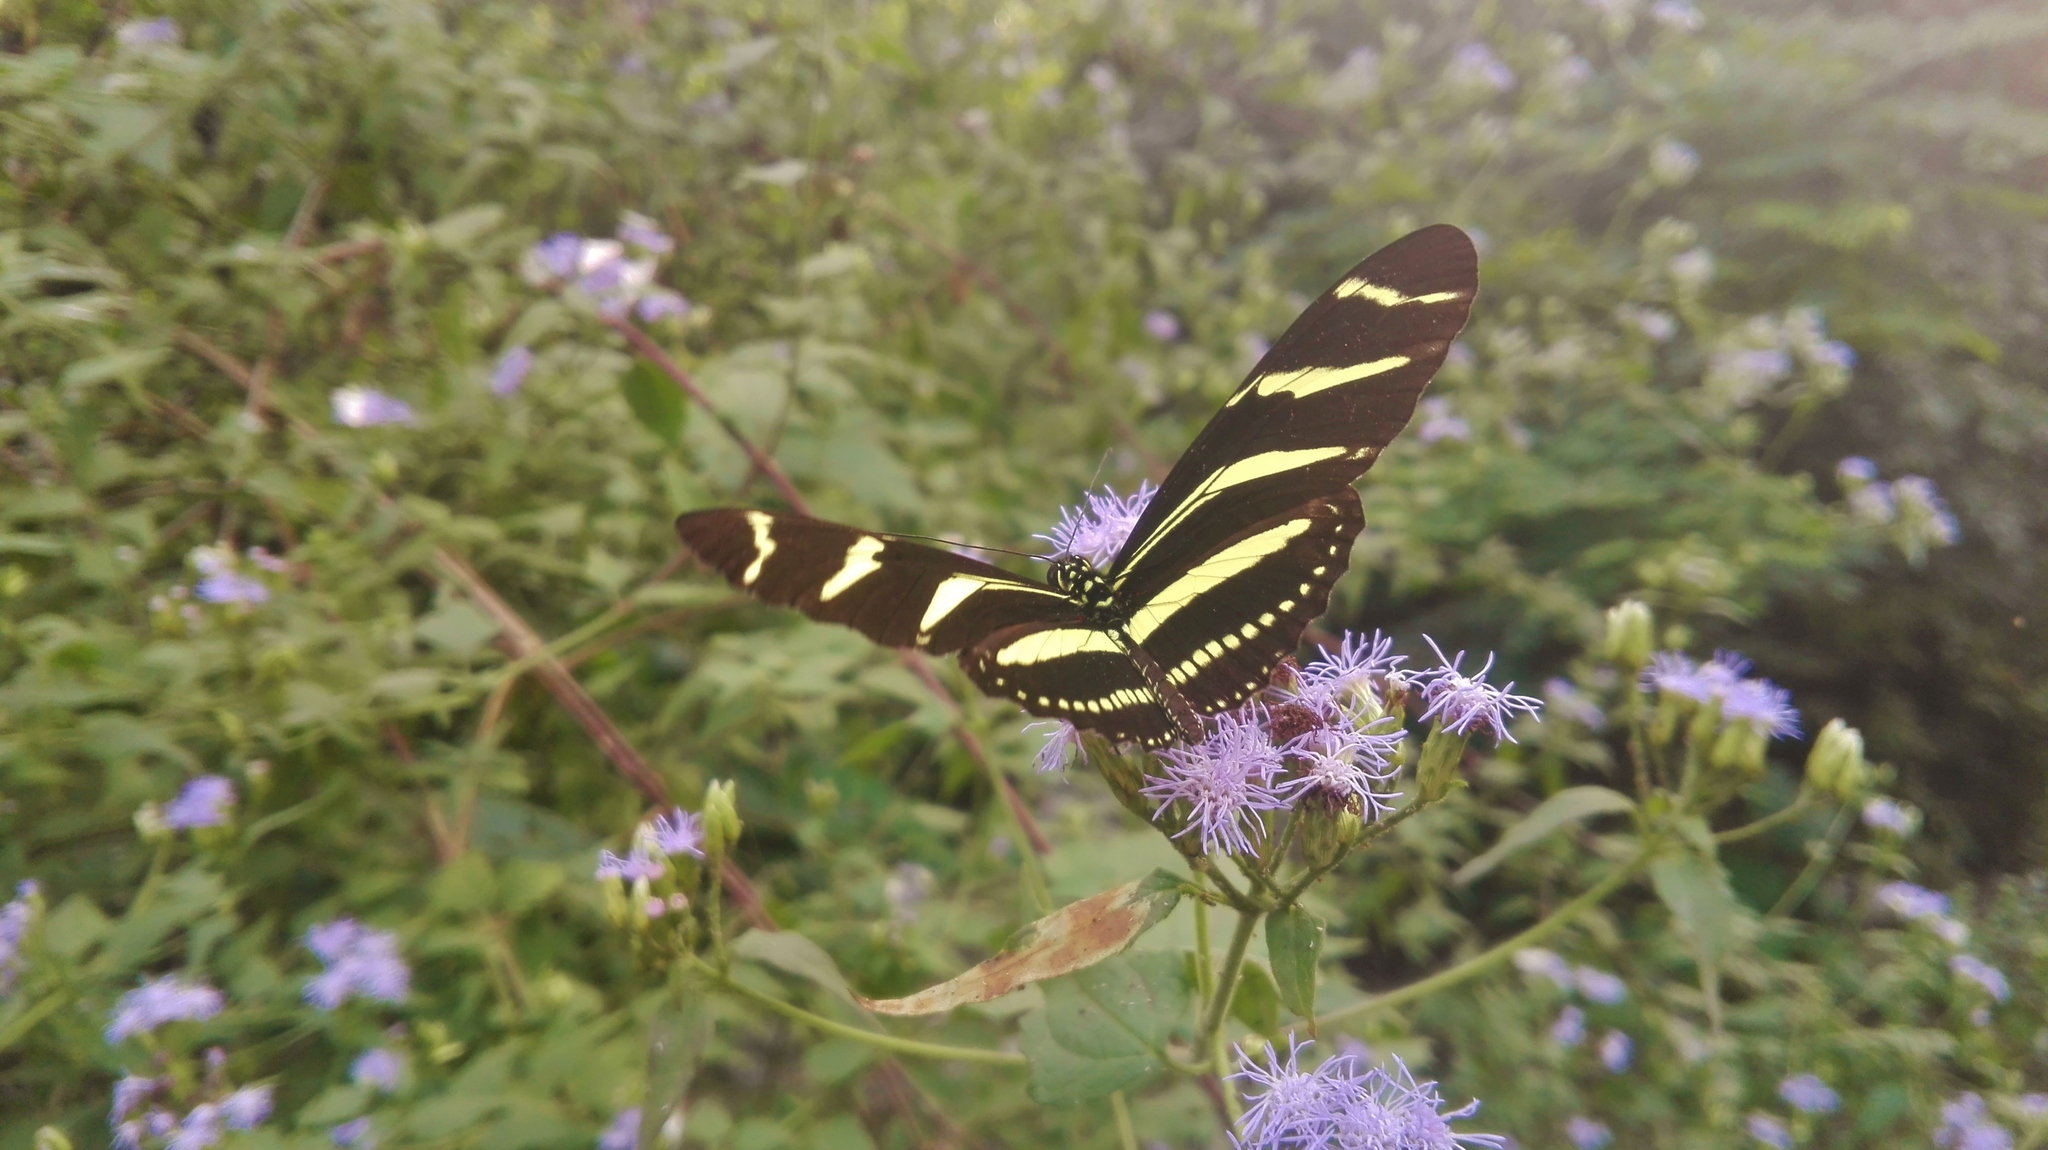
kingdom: Animalia
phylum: Arthropoda
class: Insecta
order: Lepidoptera
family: Nymphalidae
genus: Heliconius
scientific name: Heliconius charithonia
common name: Zebra long wing
